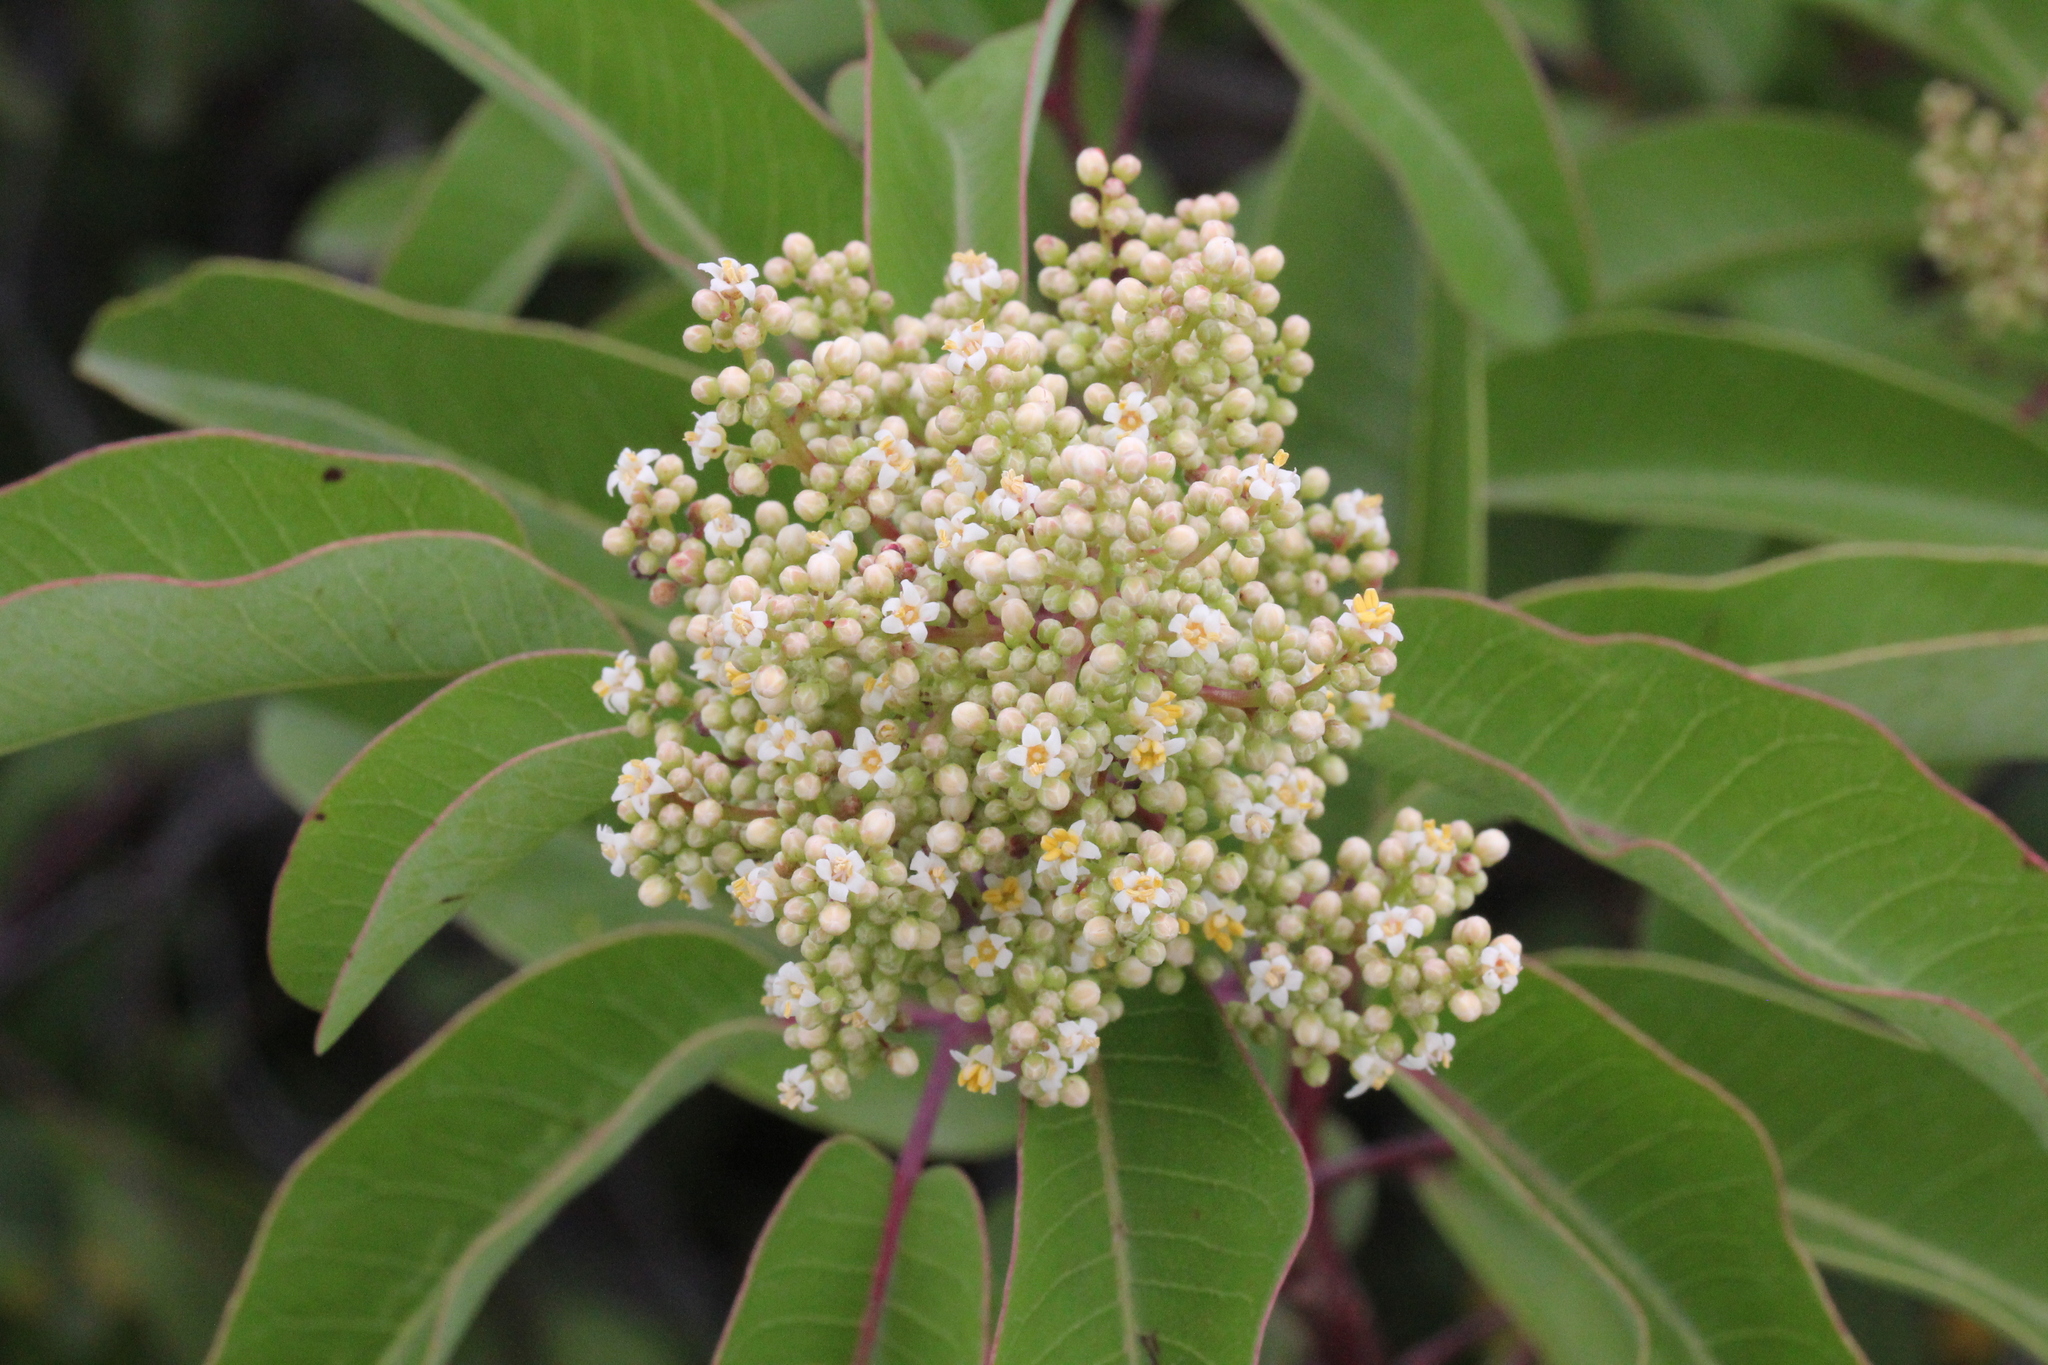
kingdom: Plantae
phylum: Tracheophyta
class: Magnoliopsida
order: Sapindales
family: Anacardiaceae
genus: Malosma
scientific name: Malosma laurina
